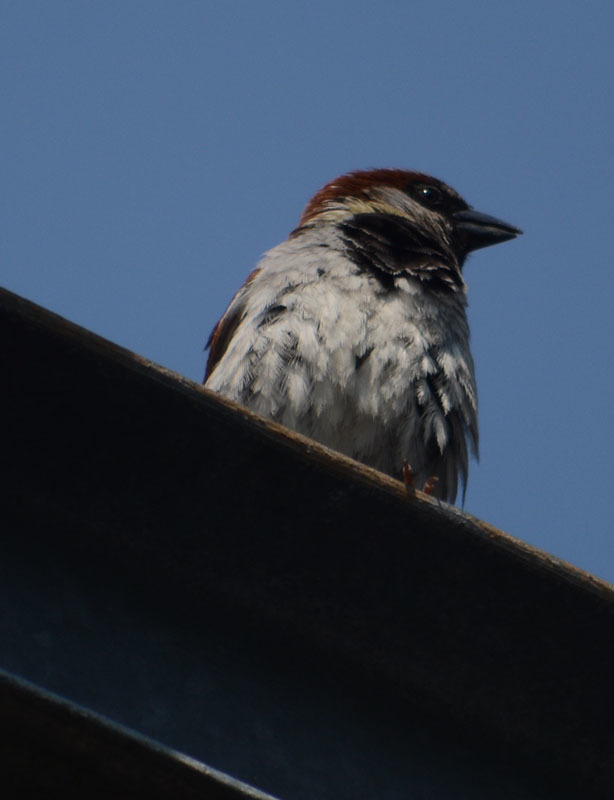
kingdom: Animalia
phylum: Chordata
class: Aves
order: Passeriformes
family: Passeridae
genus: Passer
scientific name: Passer domesticus
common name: House sparrow
